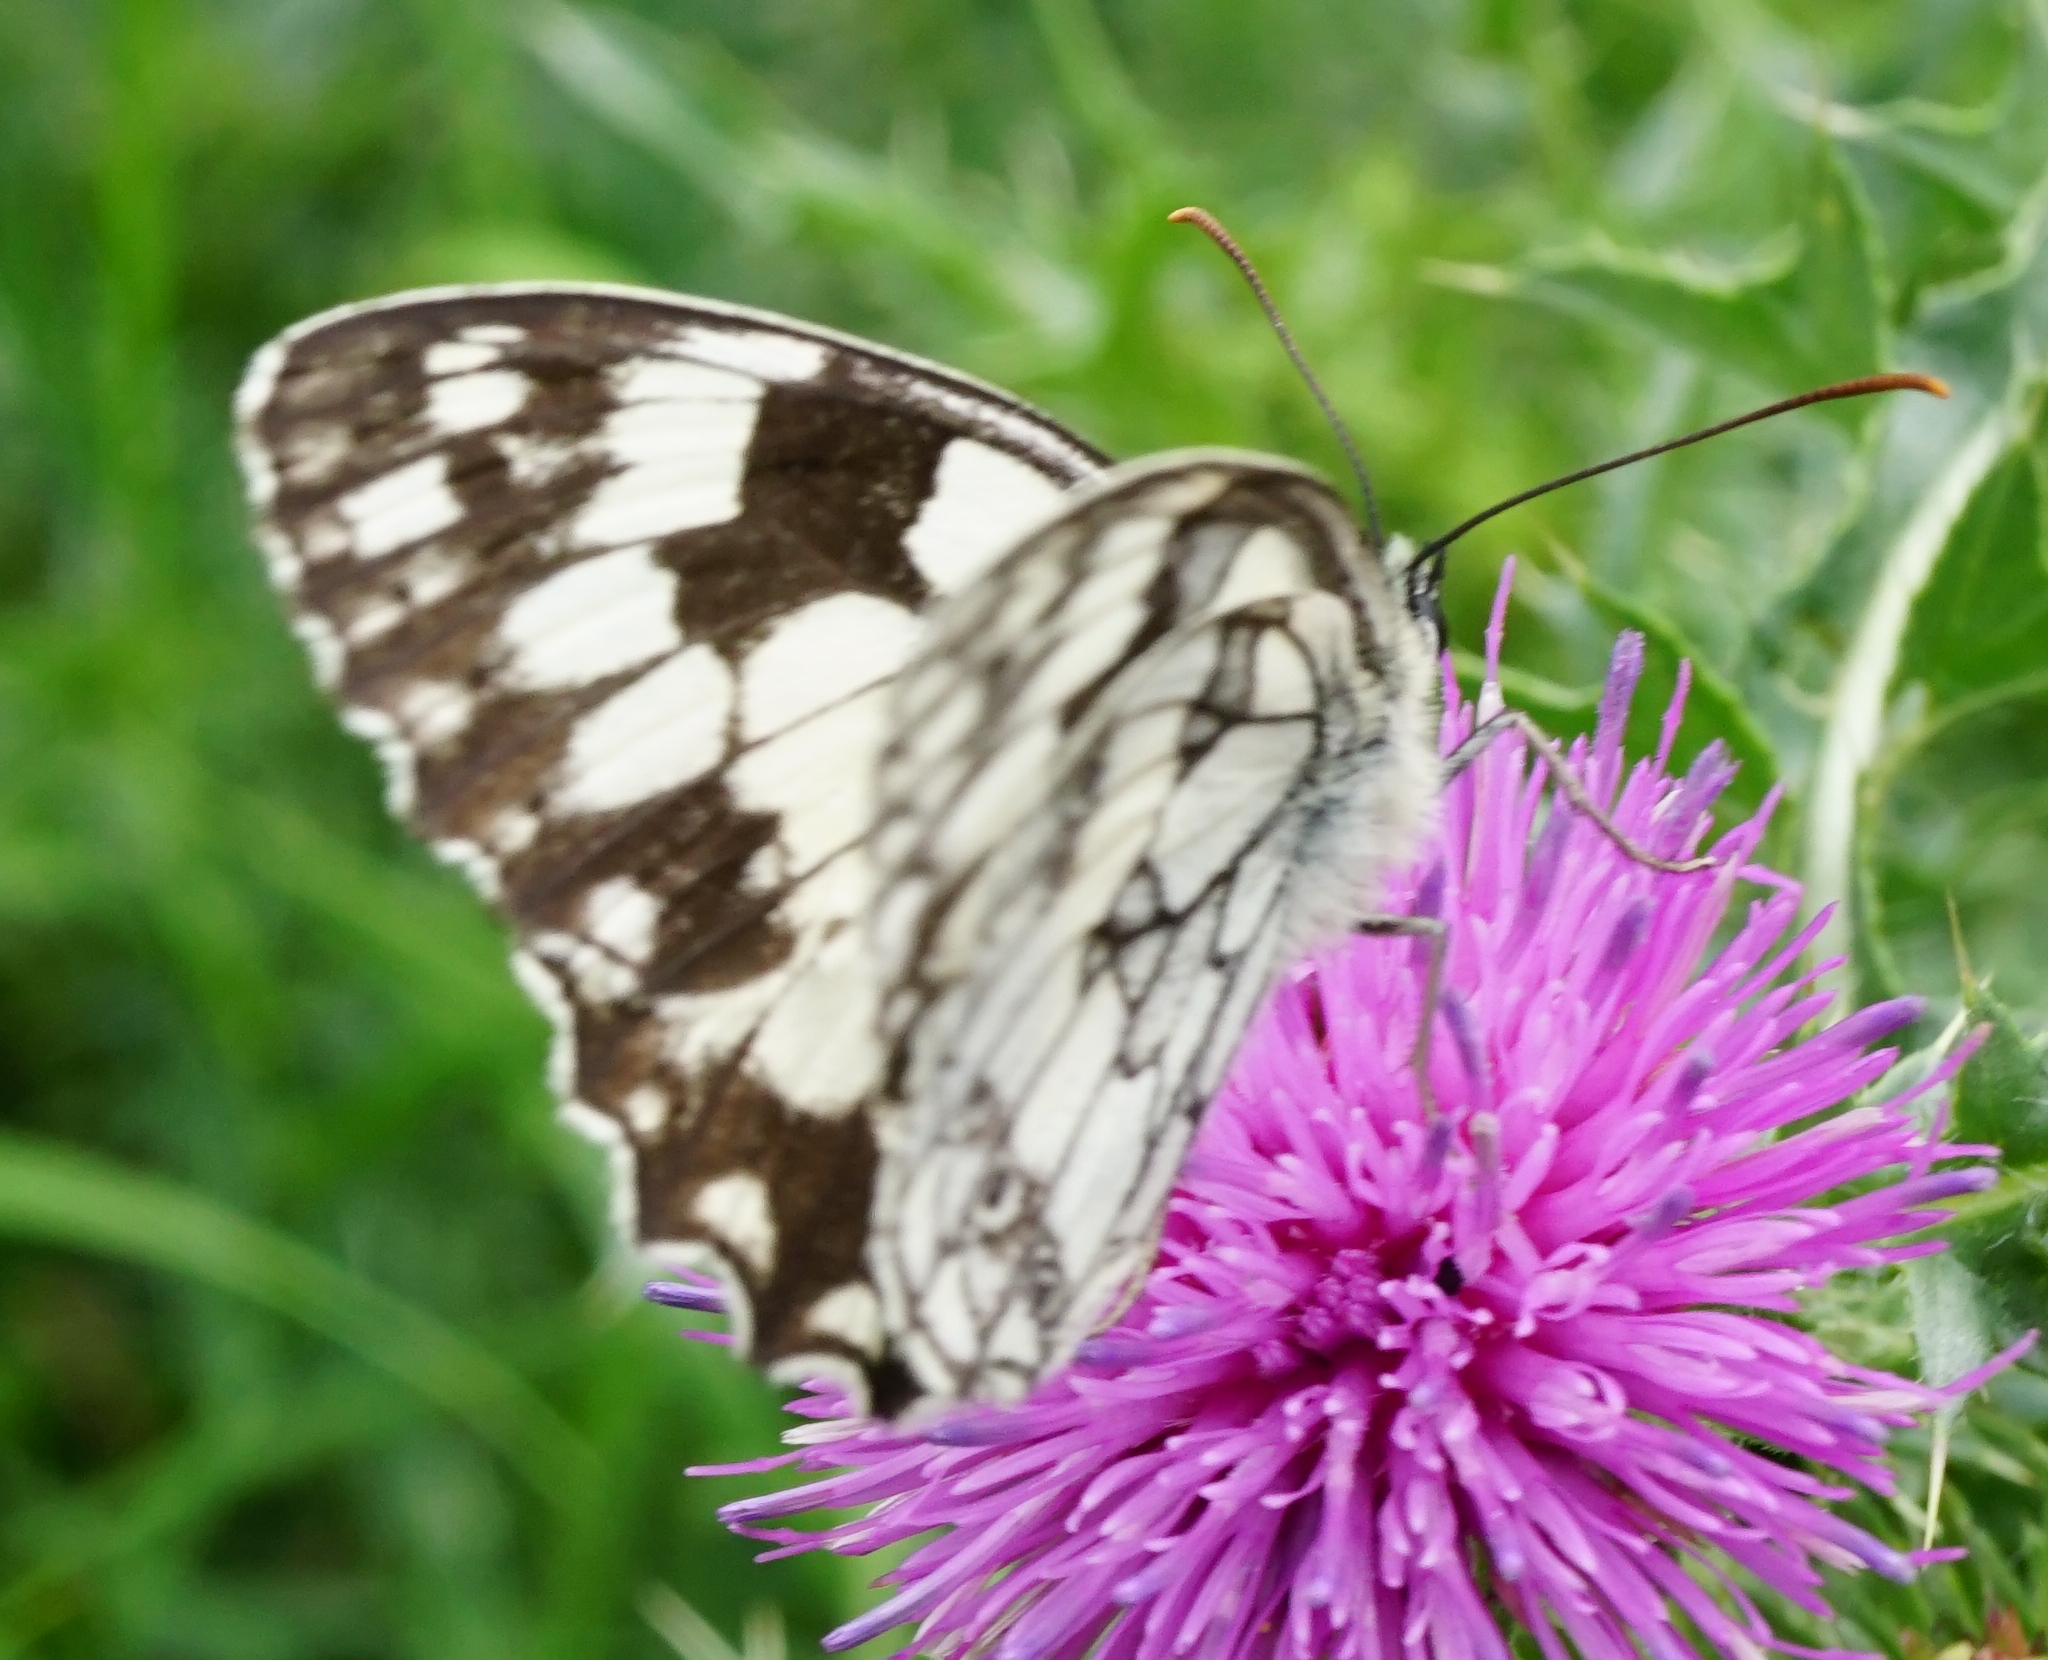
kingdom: Animalia
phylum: Arthropoda
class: Insecta
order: Lepidoptera
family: Nymphalidae
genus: Melanargia
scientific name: Melanargia galathea
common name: Marbled white
